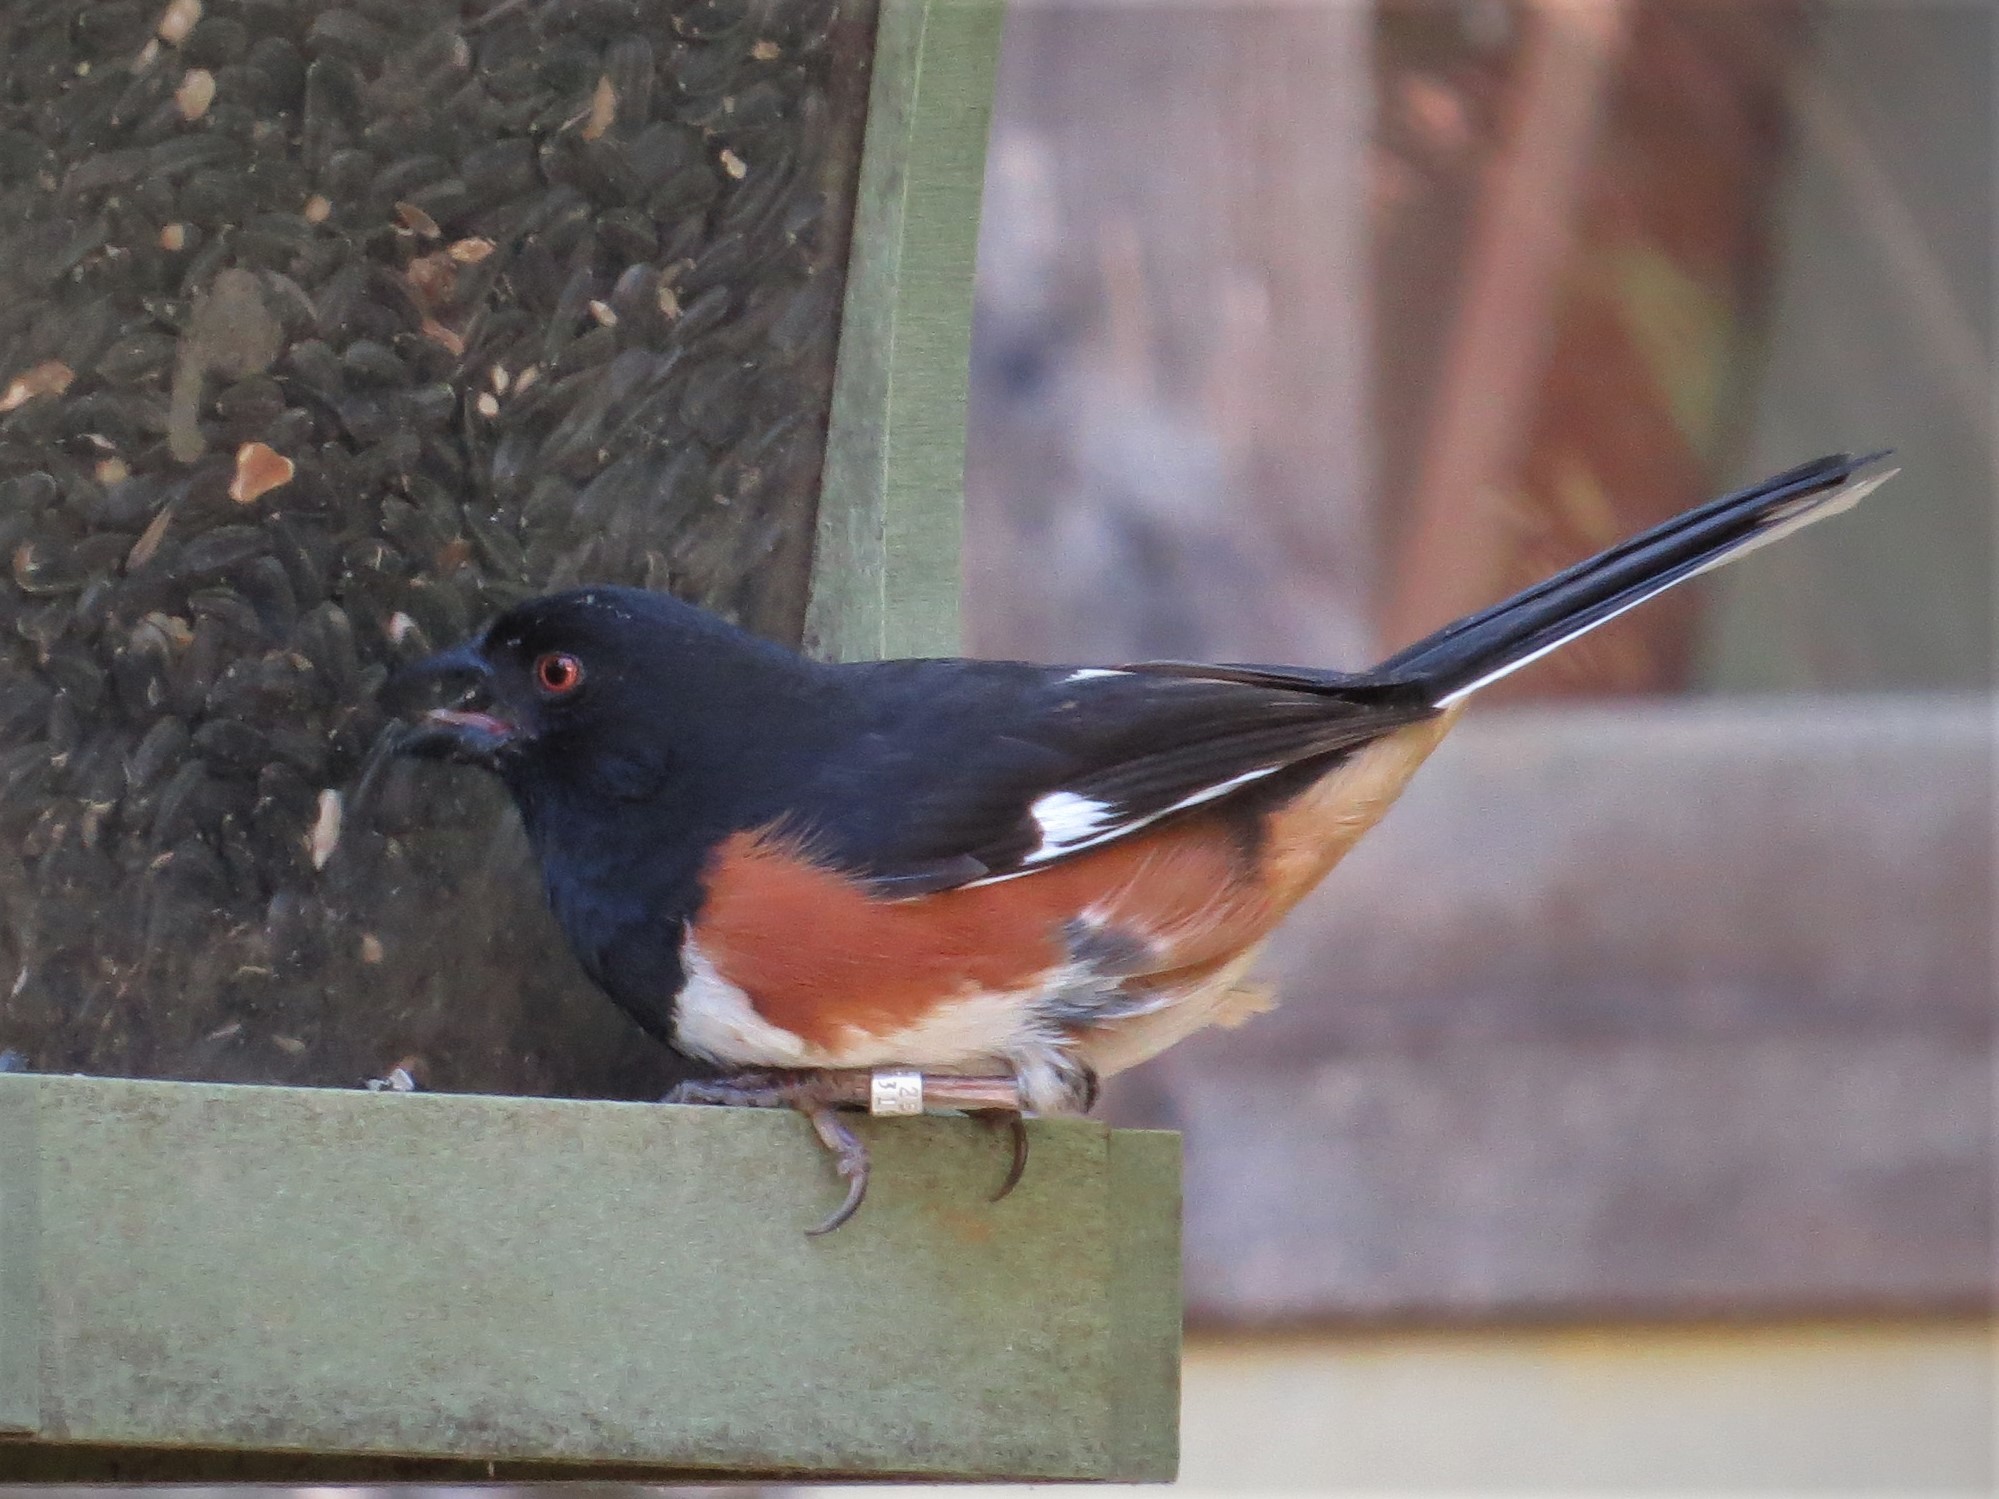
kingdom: Animalia
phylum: Chordata
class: Aves
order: Passeriformes
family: Passerellidae
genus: Pipilo
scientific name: Pipilo erythrophthalmus
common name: Eastern towhee
